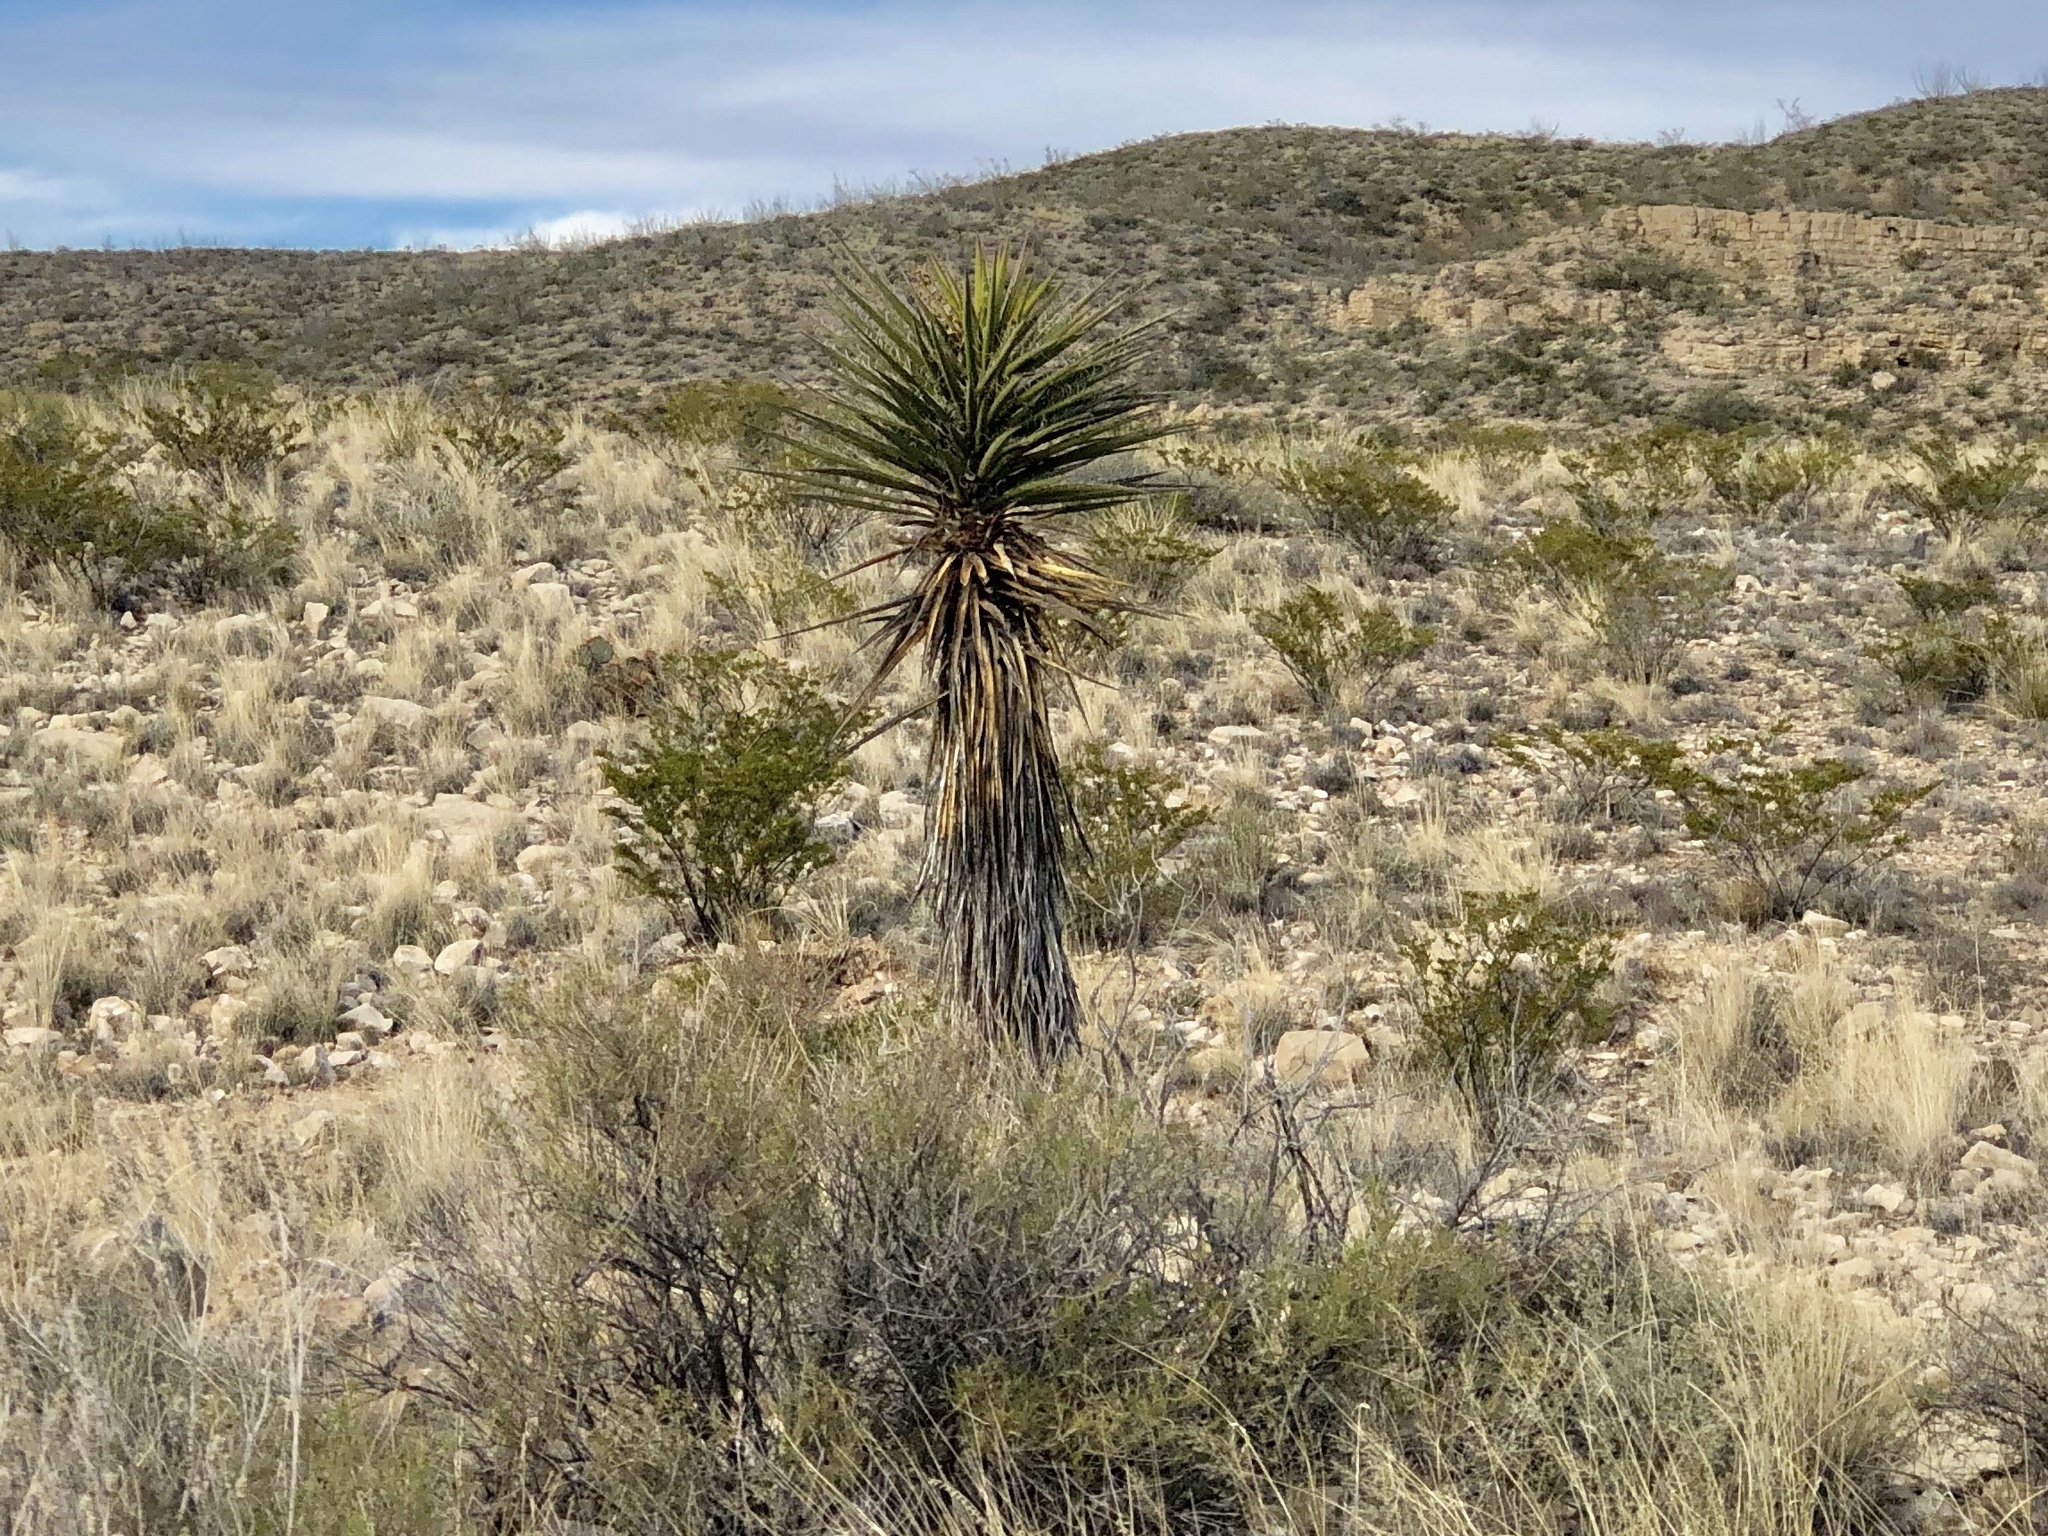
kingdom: Plantae
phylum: Tracheophyta
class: Liliopsida
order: Asparagales
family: Asparagaceae
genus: Yucca
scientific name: Yucca treculiana
